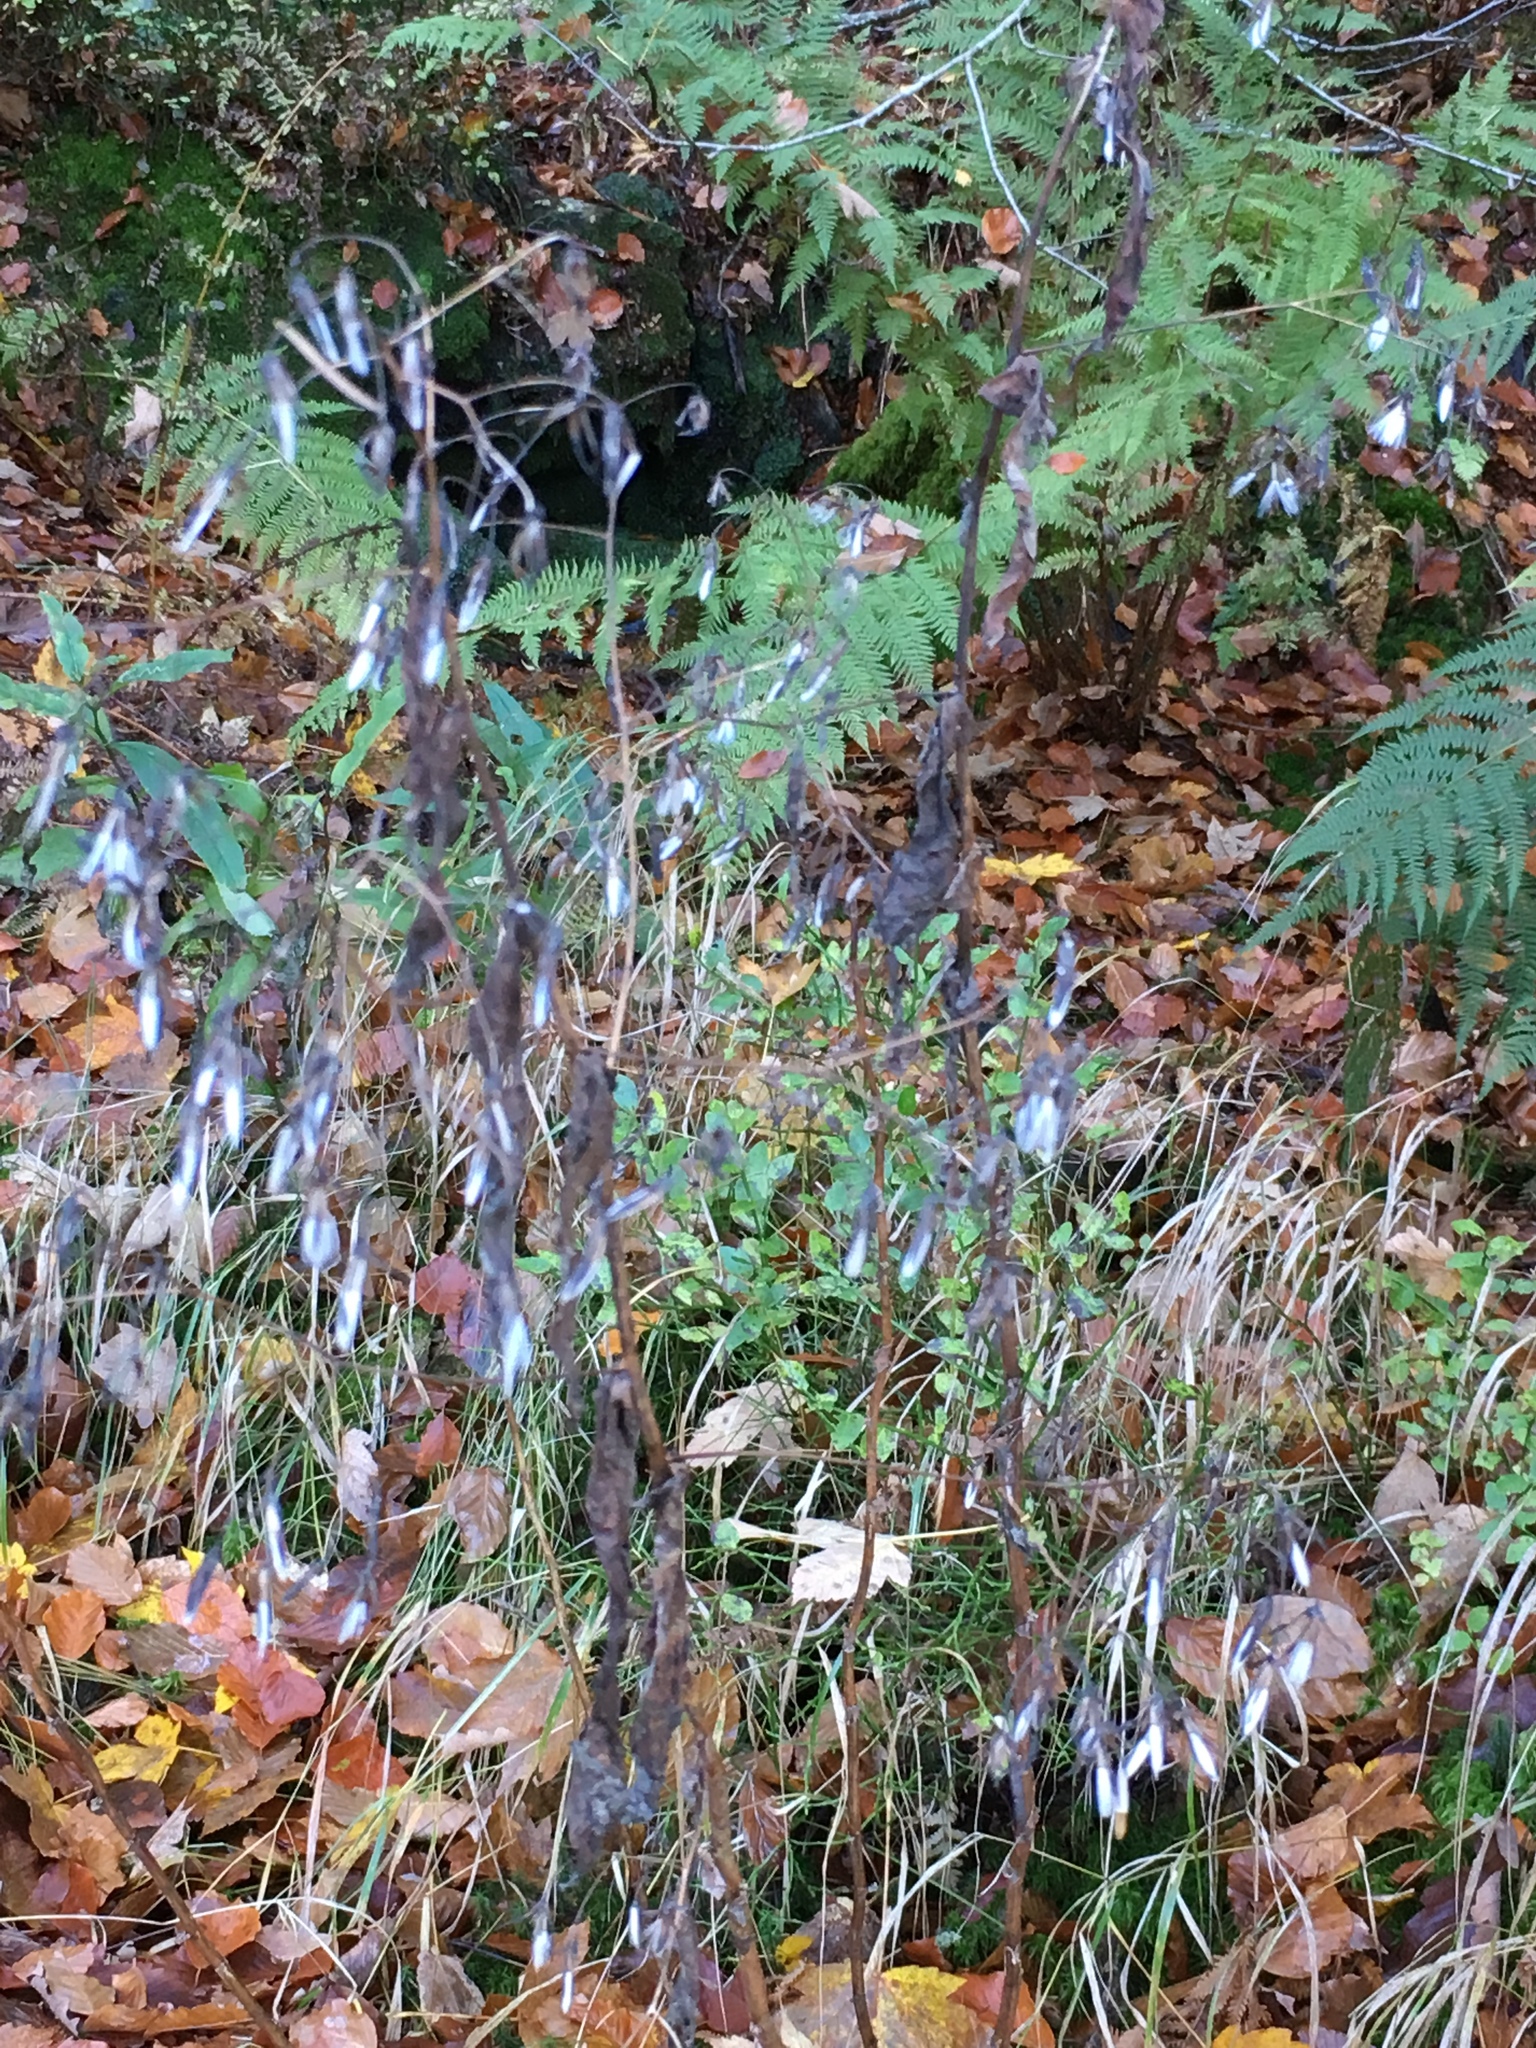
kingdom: Plantae
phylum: Tracheophyta
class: Magnoliopsida
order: Asterales
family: Asteraceae
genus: Prenanthes
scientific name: Prenanthes purpurea
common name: Purple lettuce
